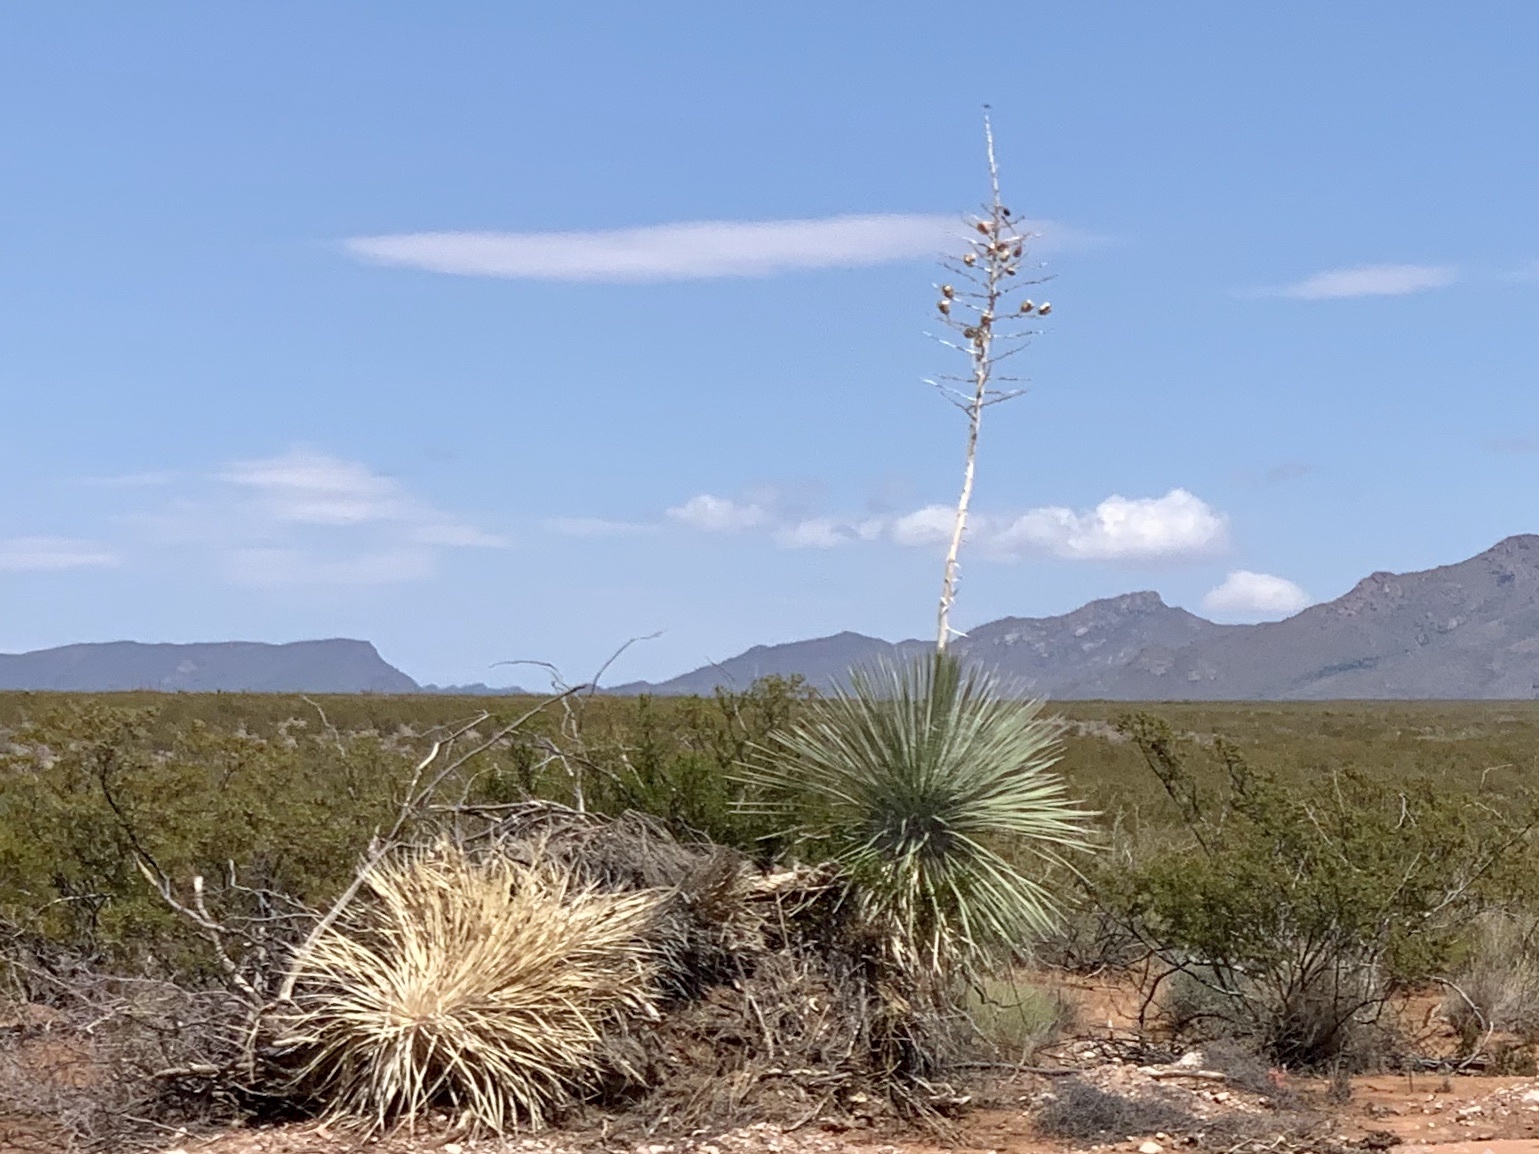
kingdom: Plantae
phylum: Tracheophyta
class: Liliopsida
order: Asparagales
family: Asparagaceae
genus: Yucca
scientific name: Yucca elata
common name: Palmella
